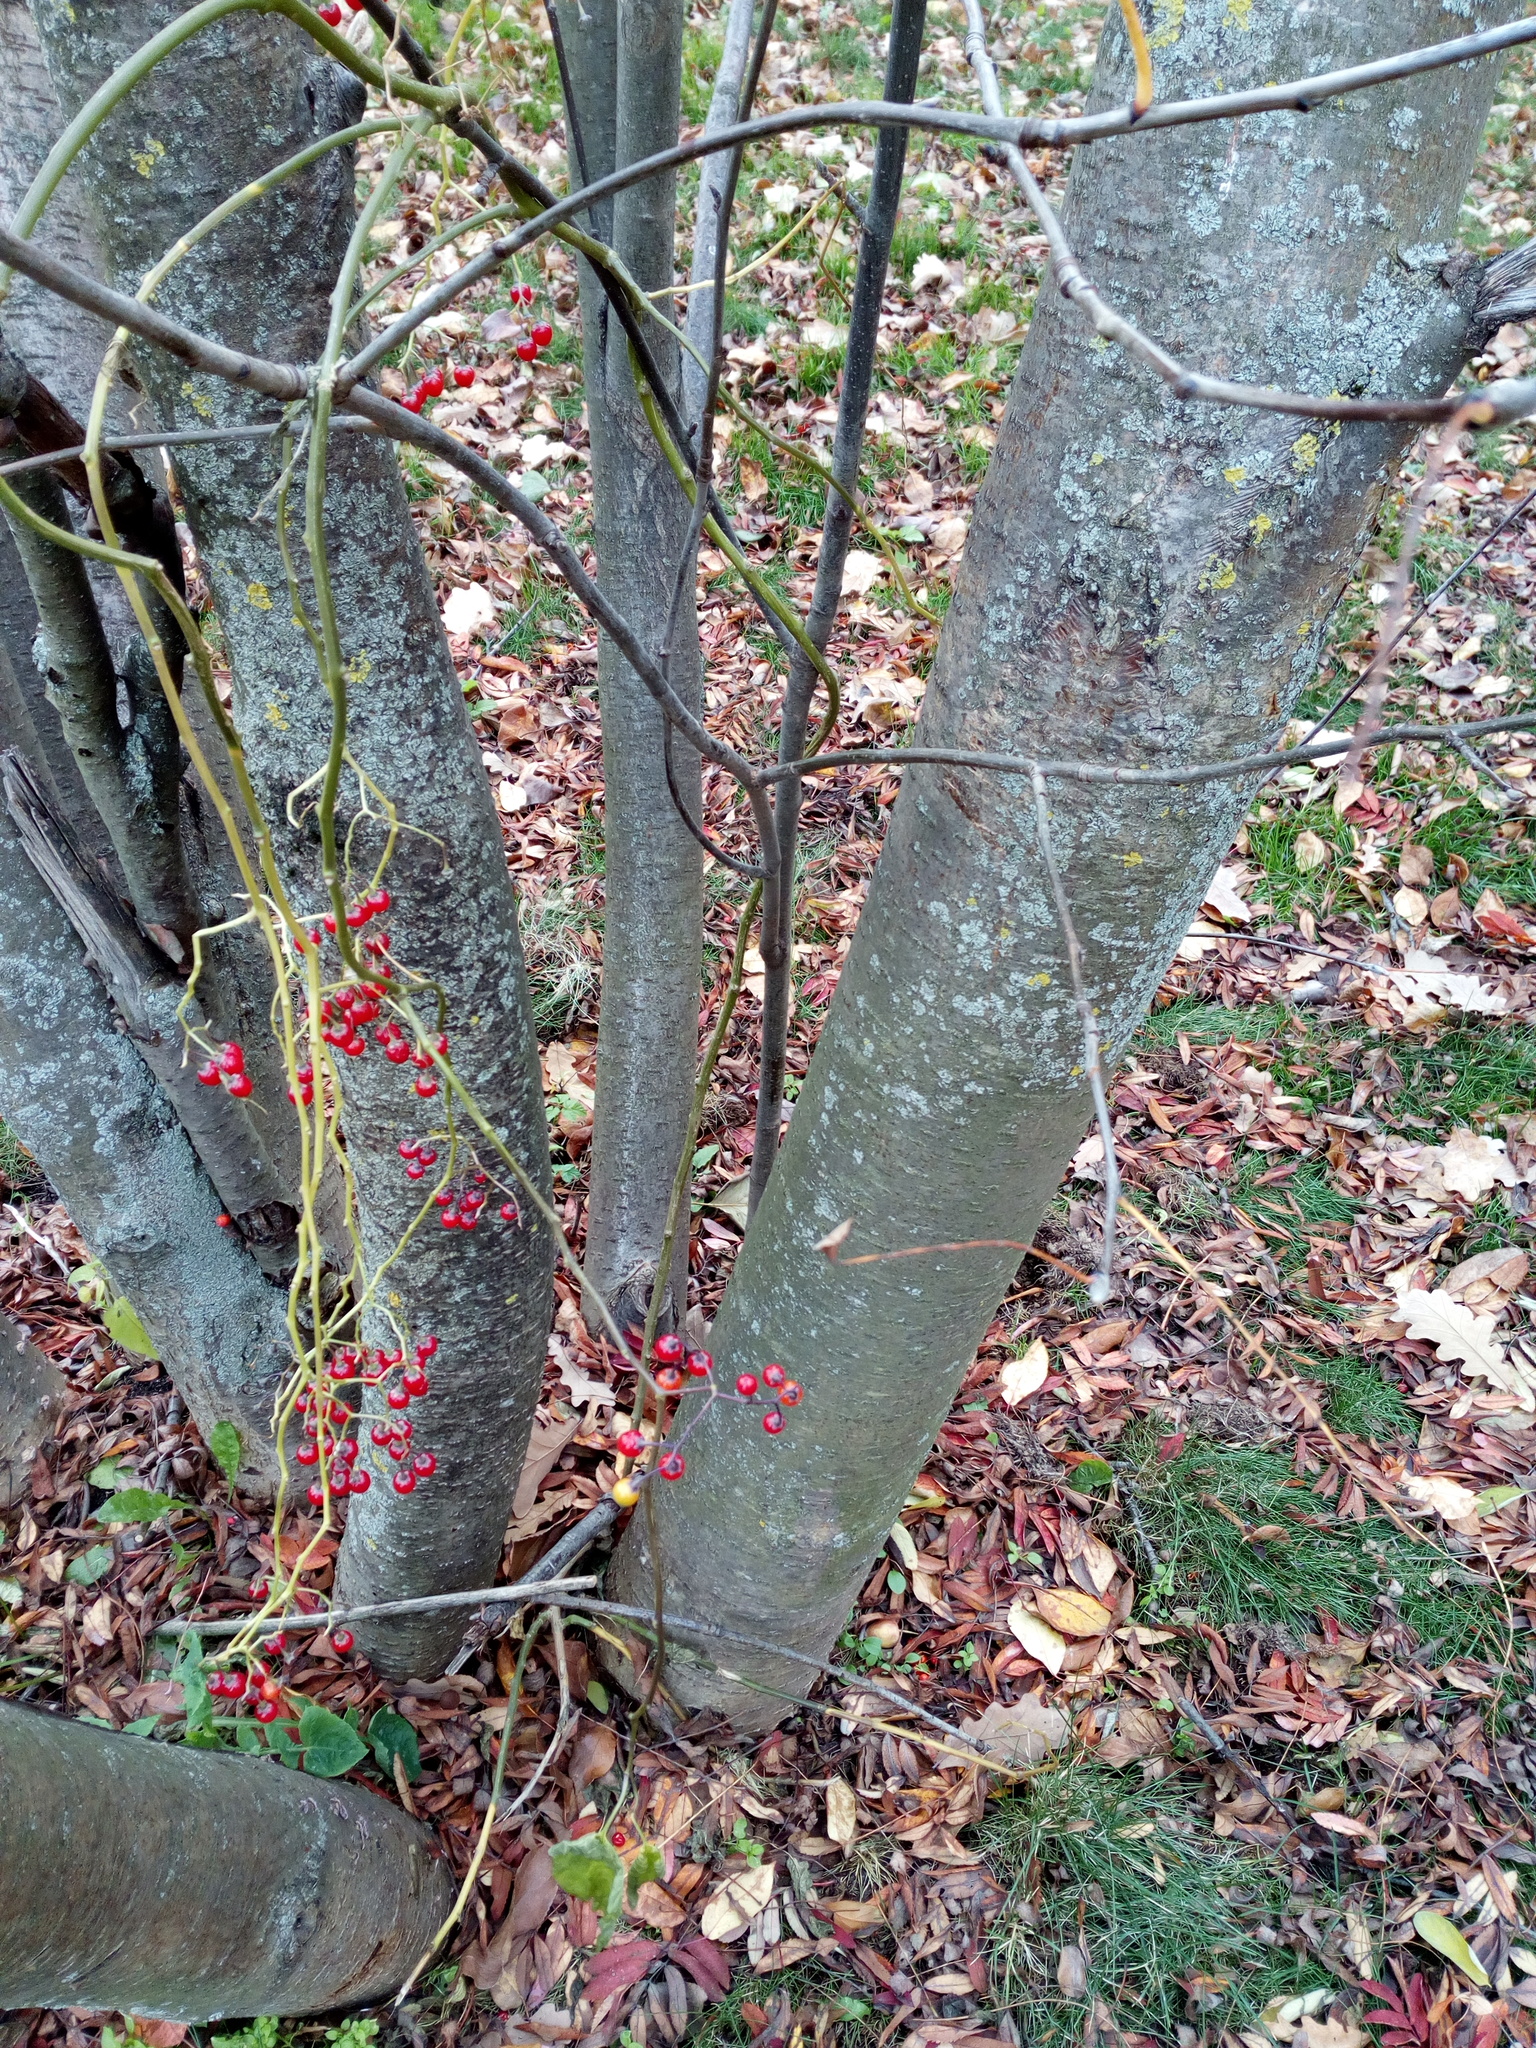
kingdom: Plantae
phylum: Tracheophyta
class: Magnoliopsida
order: Solanales
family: Solanaceae
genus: Solanum
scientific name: Solanum dulcamara
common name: Climbing nightshade
